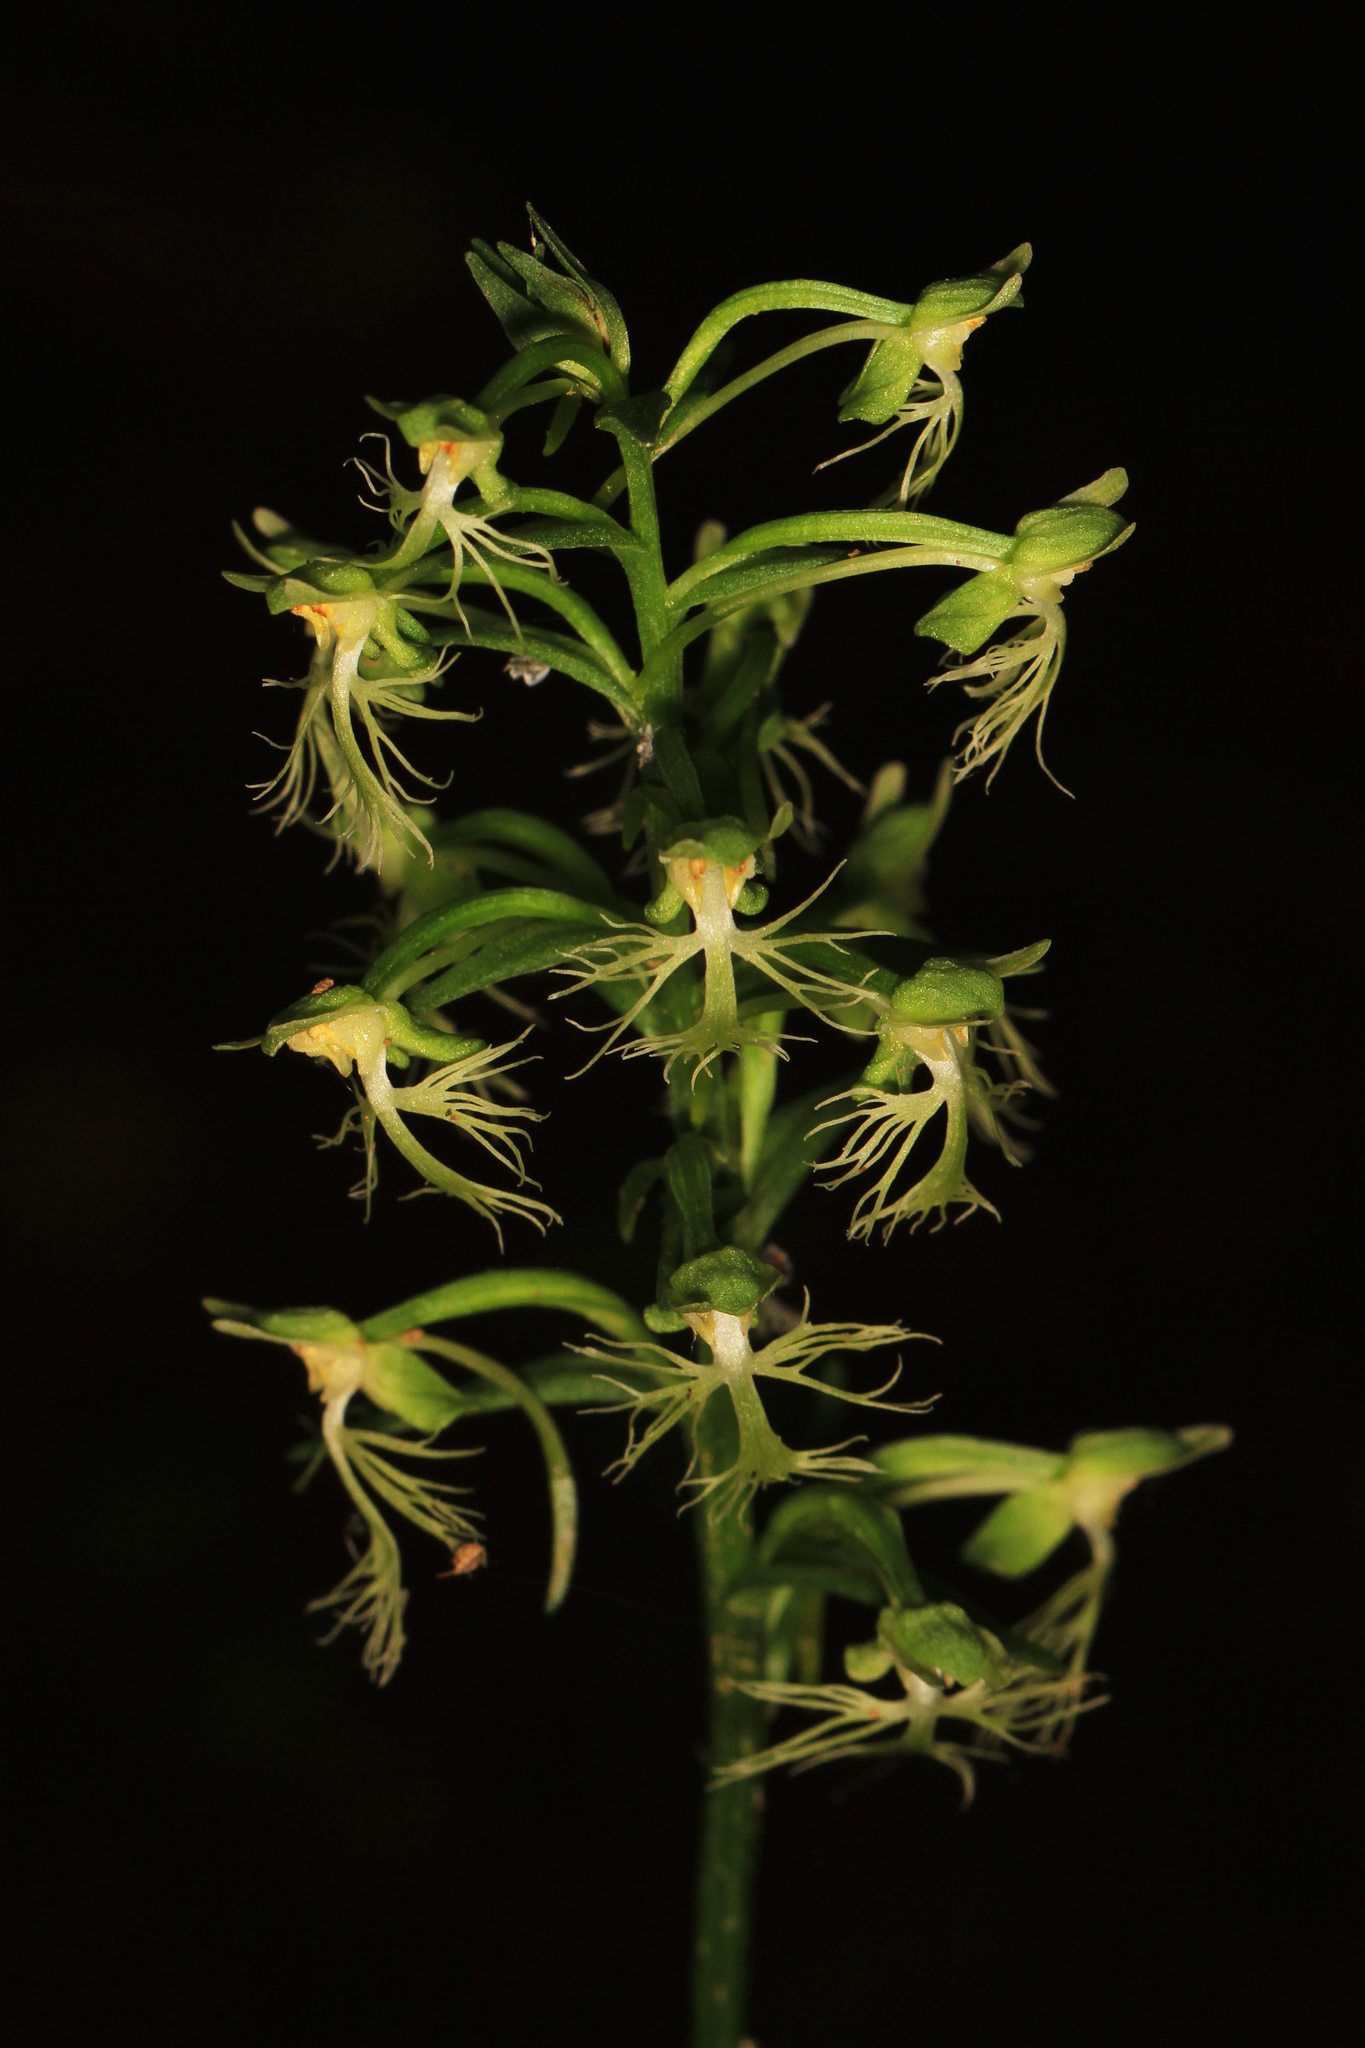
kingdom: Plantae
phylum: Tracheophyta
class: Liliopsida
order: Asparagales
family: Orchidaceae
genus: Platanthera
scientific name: Platanthera lacera
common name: Green fringed orchid
